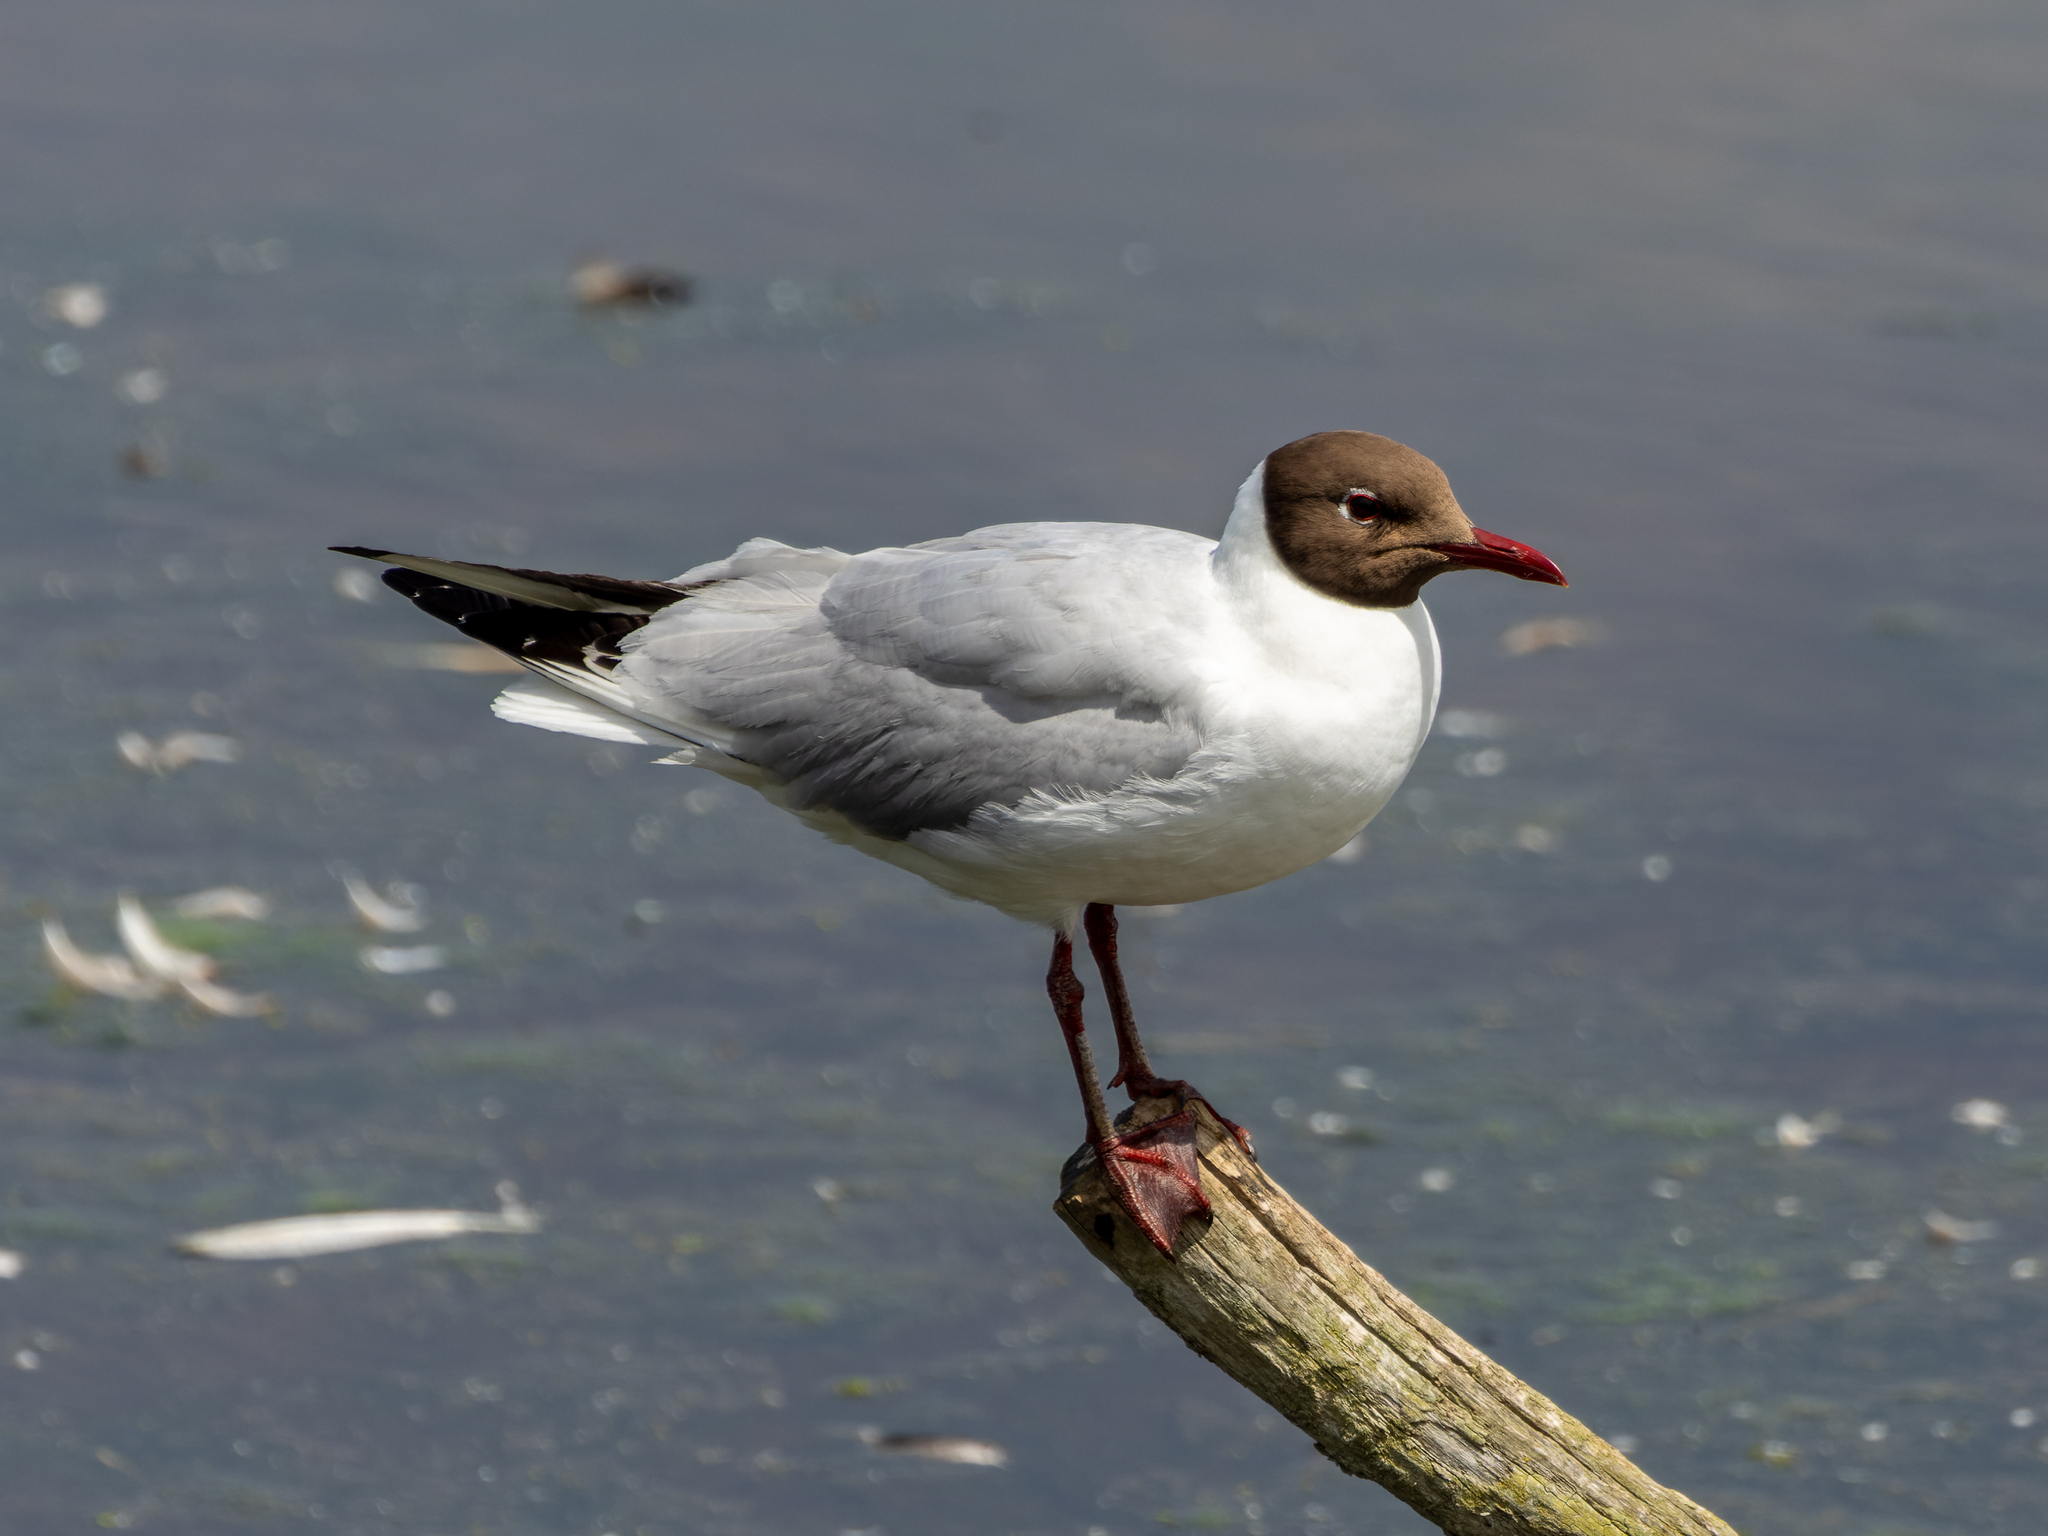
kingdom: Animalia
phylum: Chordata
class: Aves
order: Charadriiformes
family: Laridae
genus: Chroicocephalus
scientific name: Chroicocephalus ridibundus
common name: Black-headed gull
